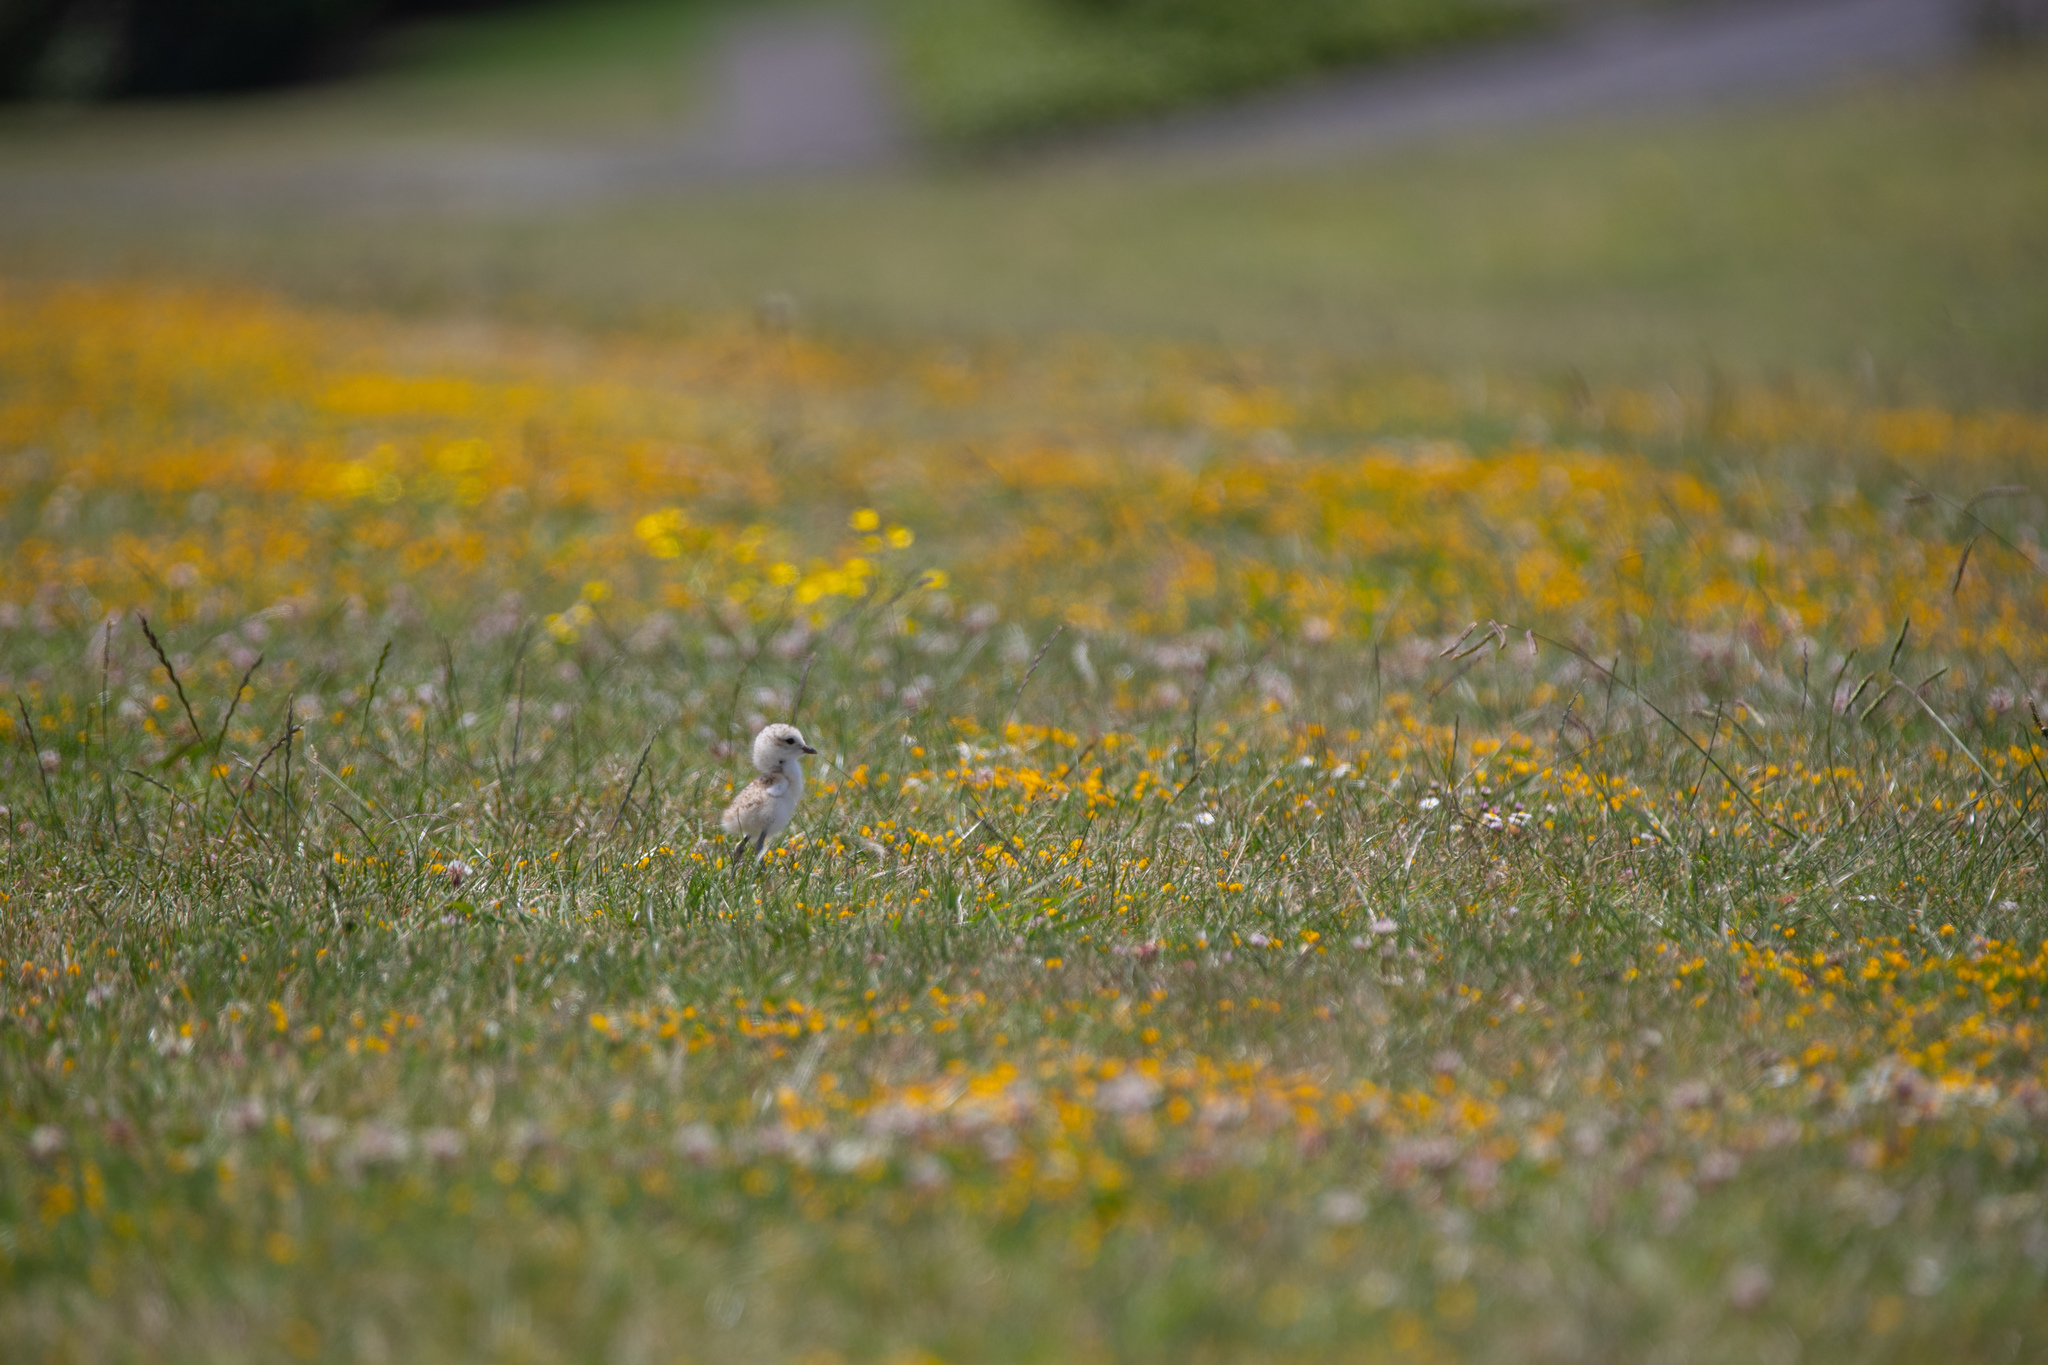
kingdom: Animalia
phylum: Chordata
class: Aves
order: Charadriiformes
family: Charadriidae
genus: Anarhynchus
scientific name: Anarhynchus
